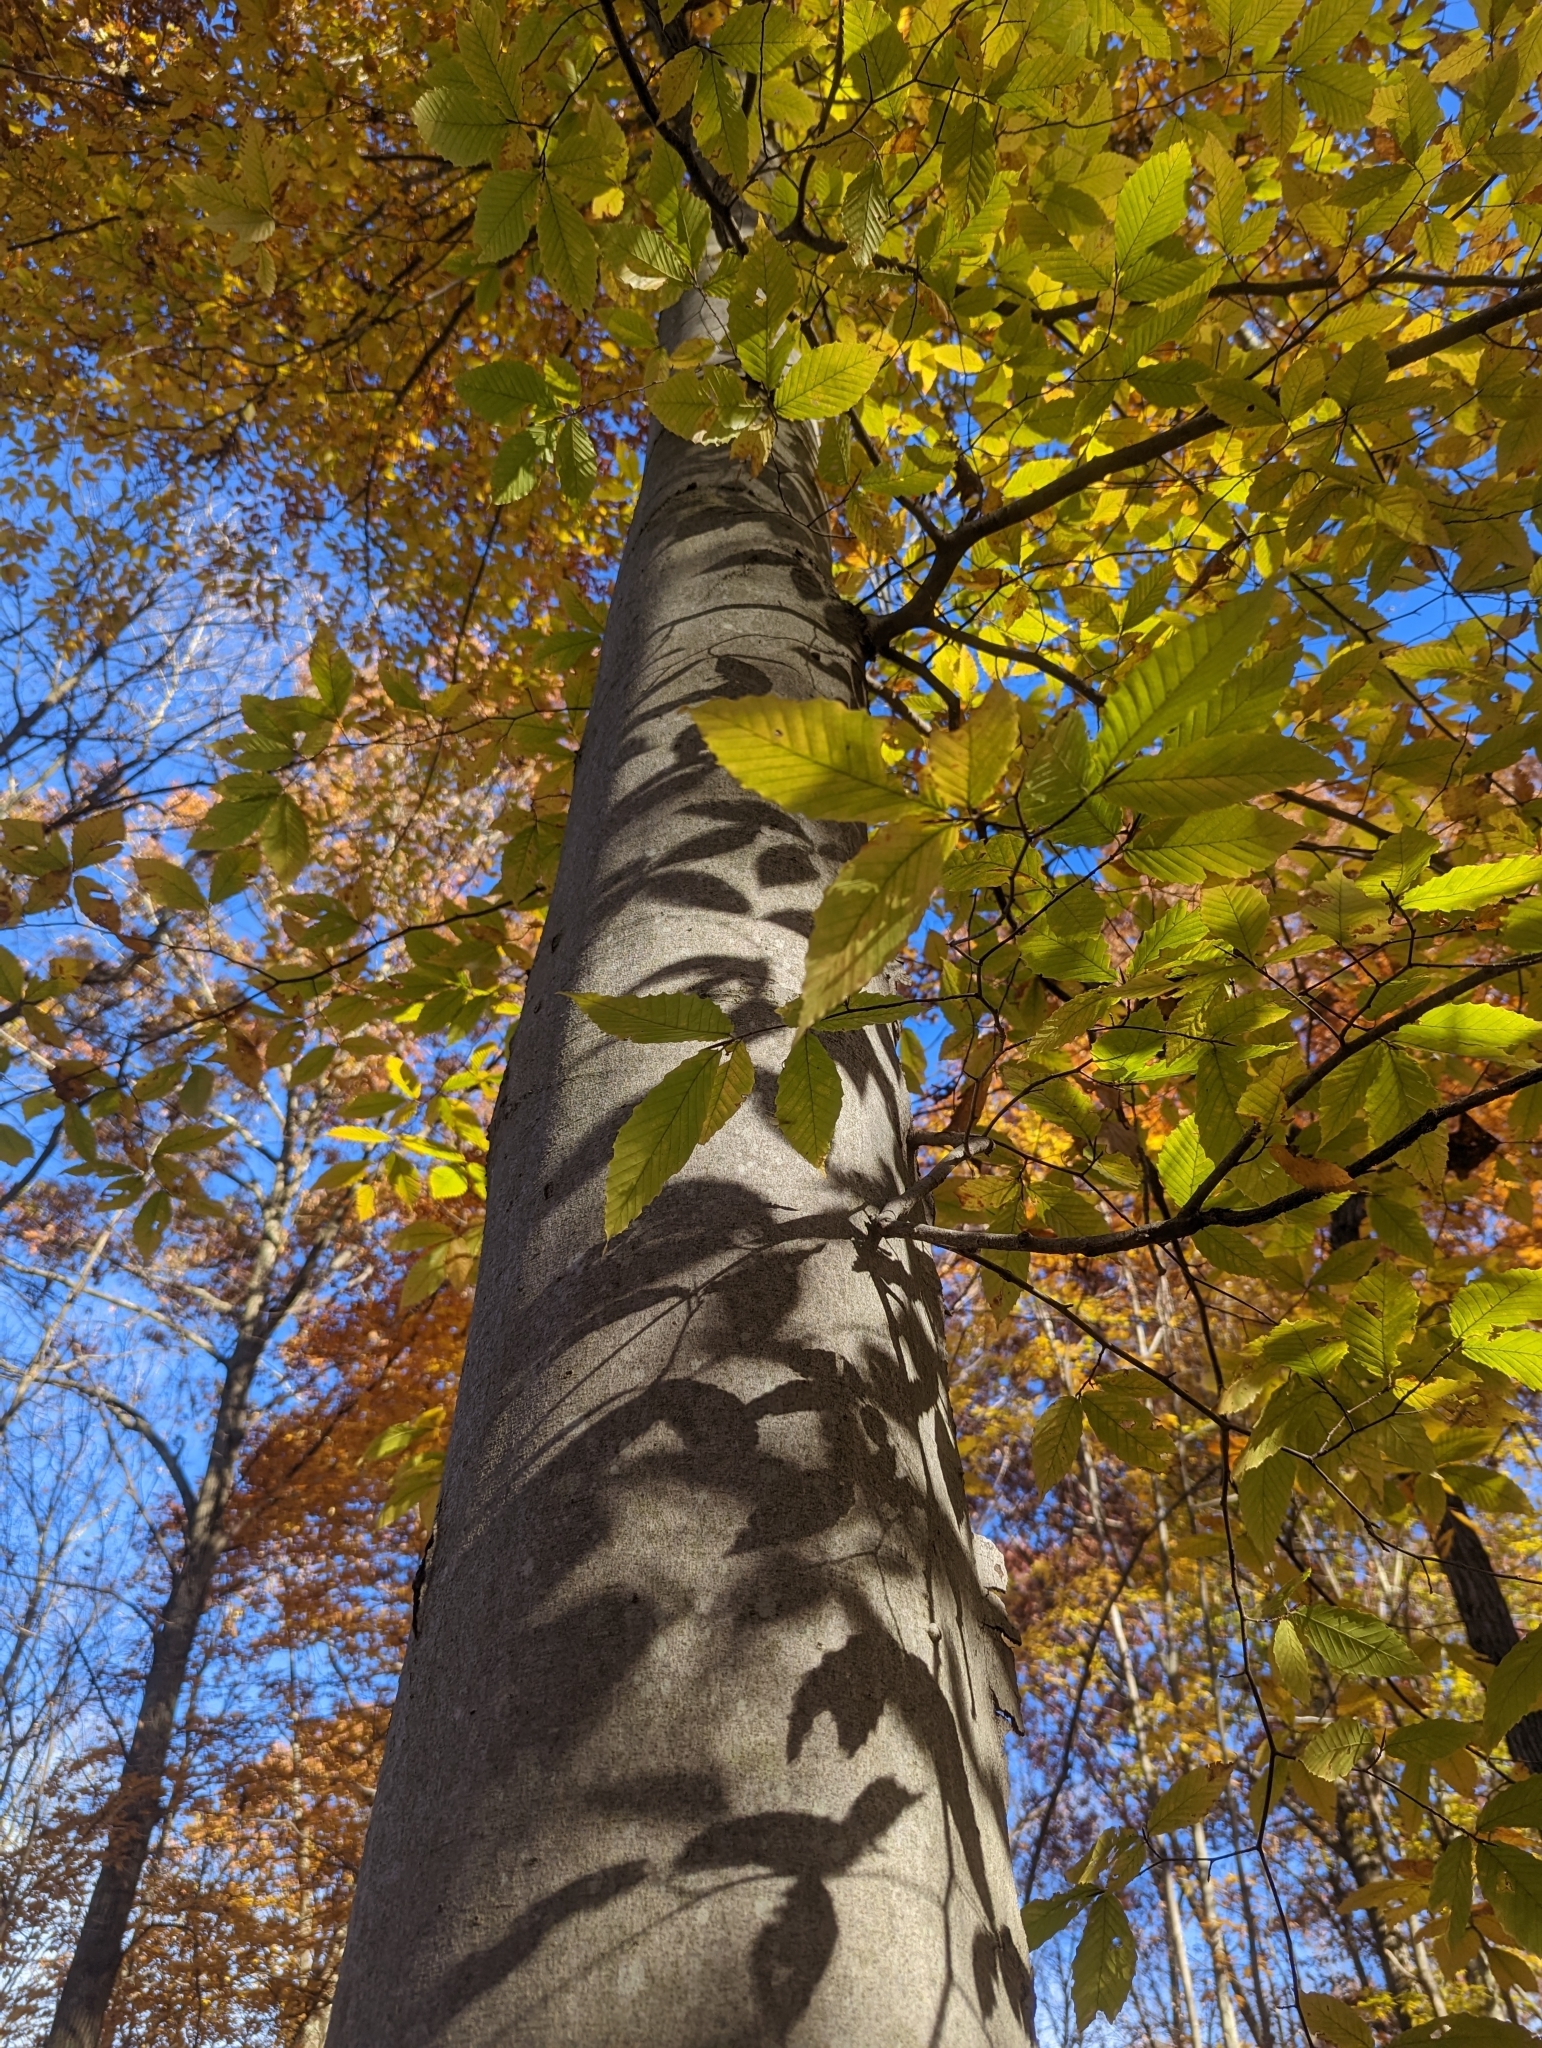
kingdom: Plantae
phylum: Tracheophyta
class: Magnoliopsida
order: Fagales
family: Fagaceae
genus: Fagus
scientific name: Fagus grandifolia
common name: American beech
